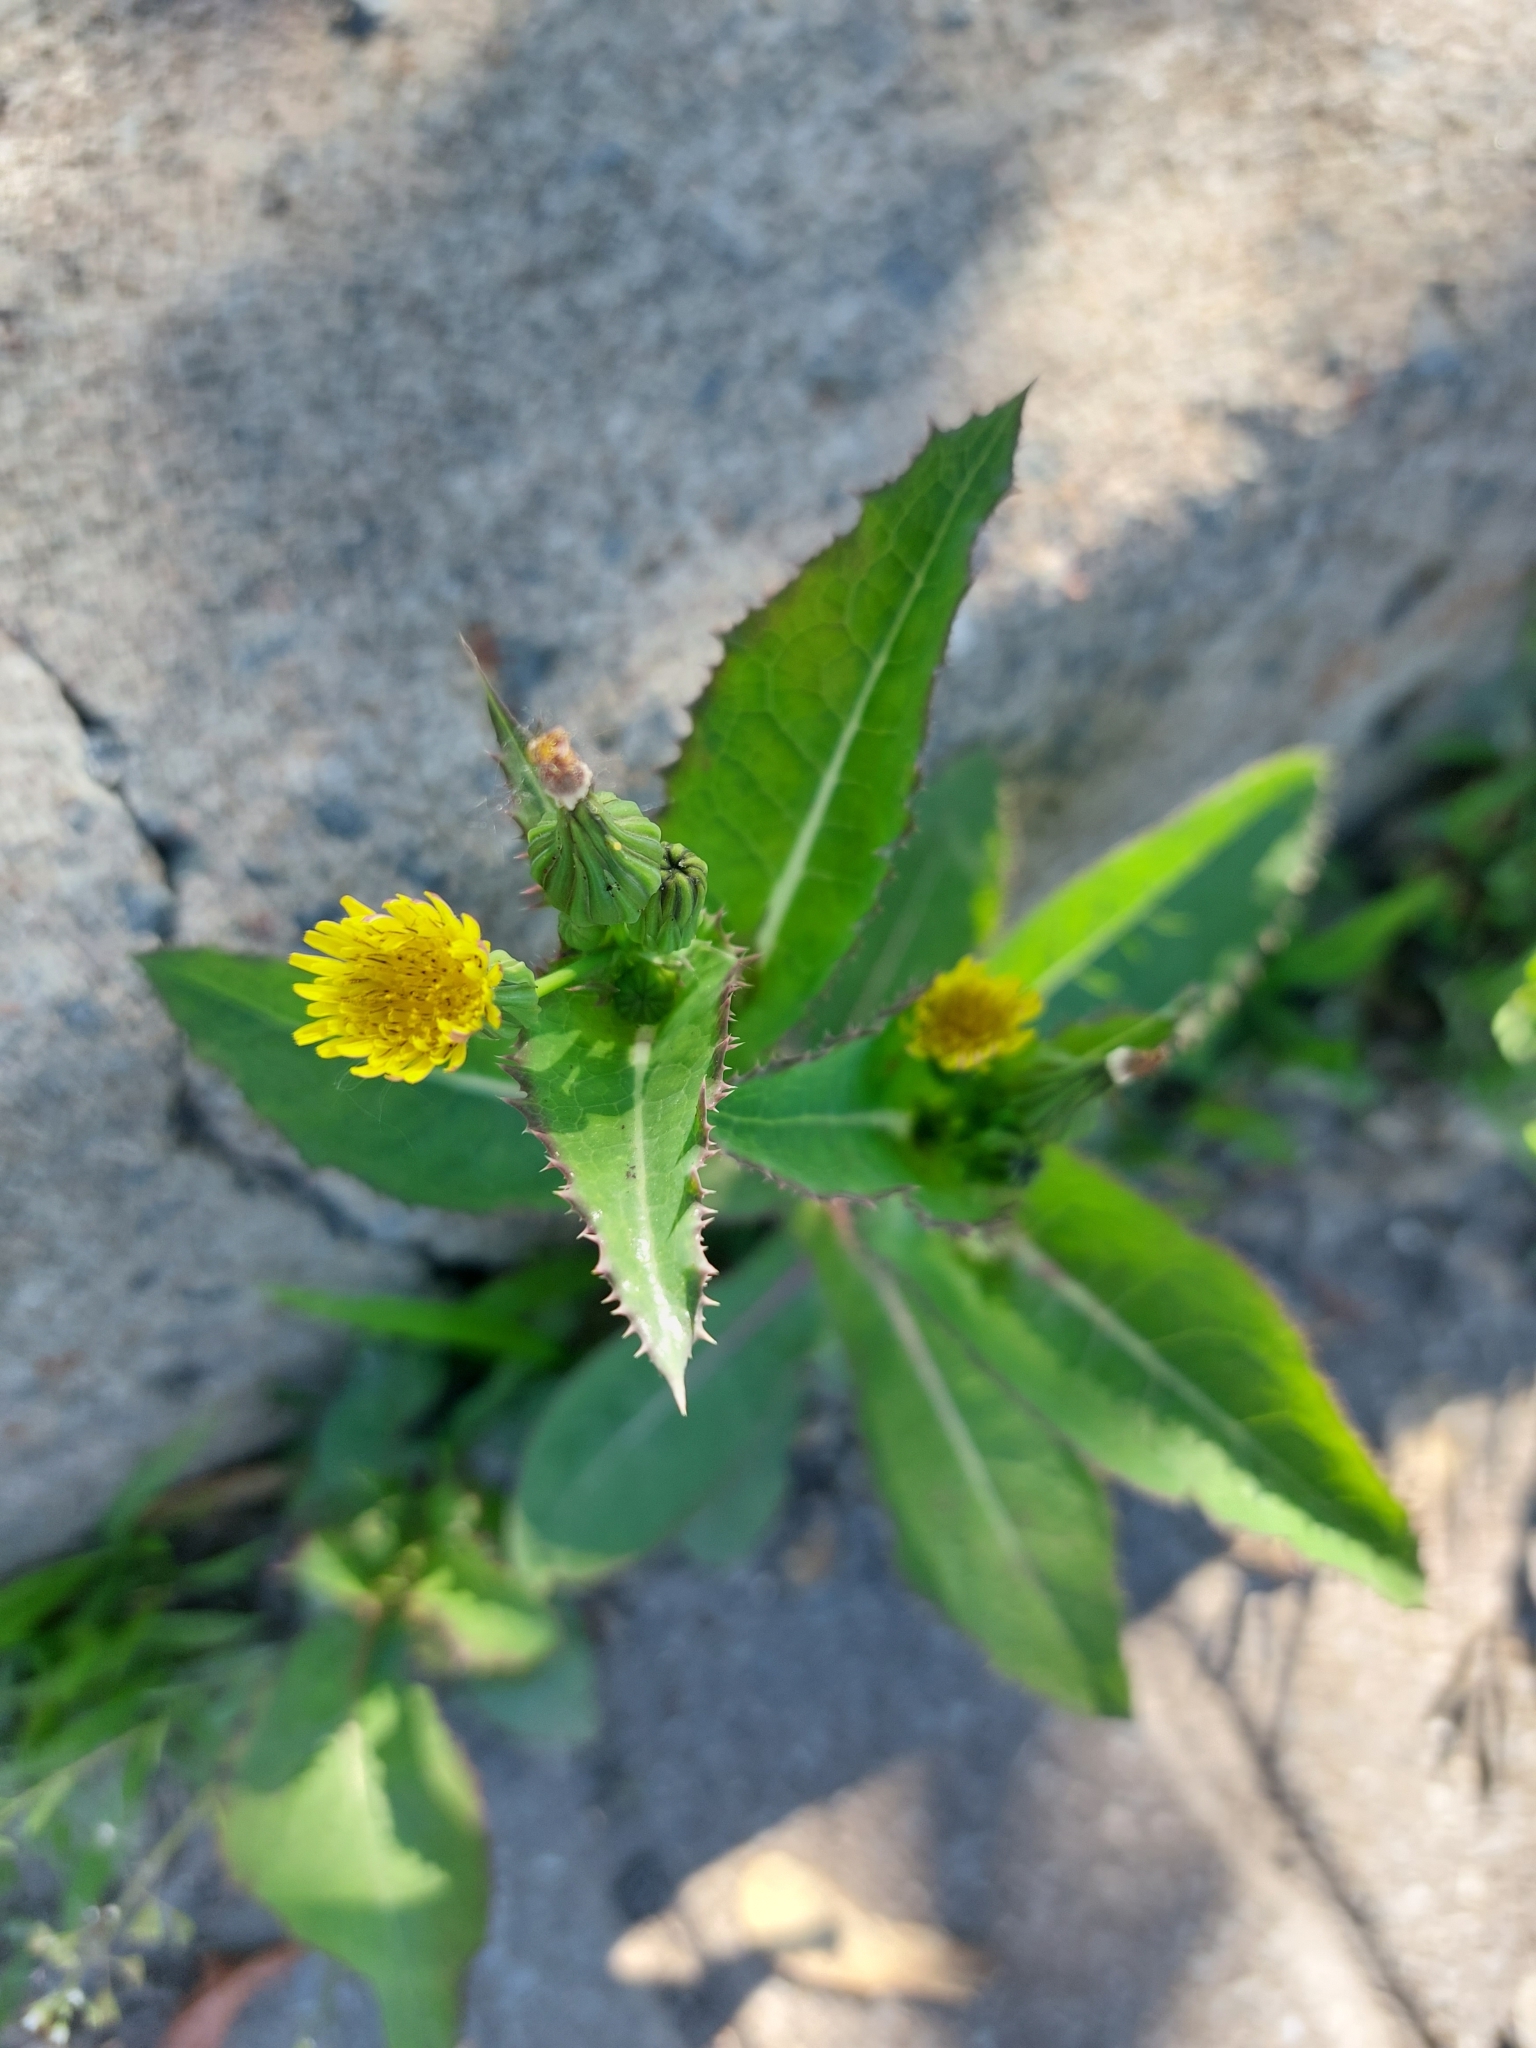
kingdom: Plantae
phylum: Tracheophyta
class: Magnoliopsida
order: Asterales
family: Asteraceae
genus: Sonchus
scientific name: Sonchus asper
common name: Prickly sow-thistle
